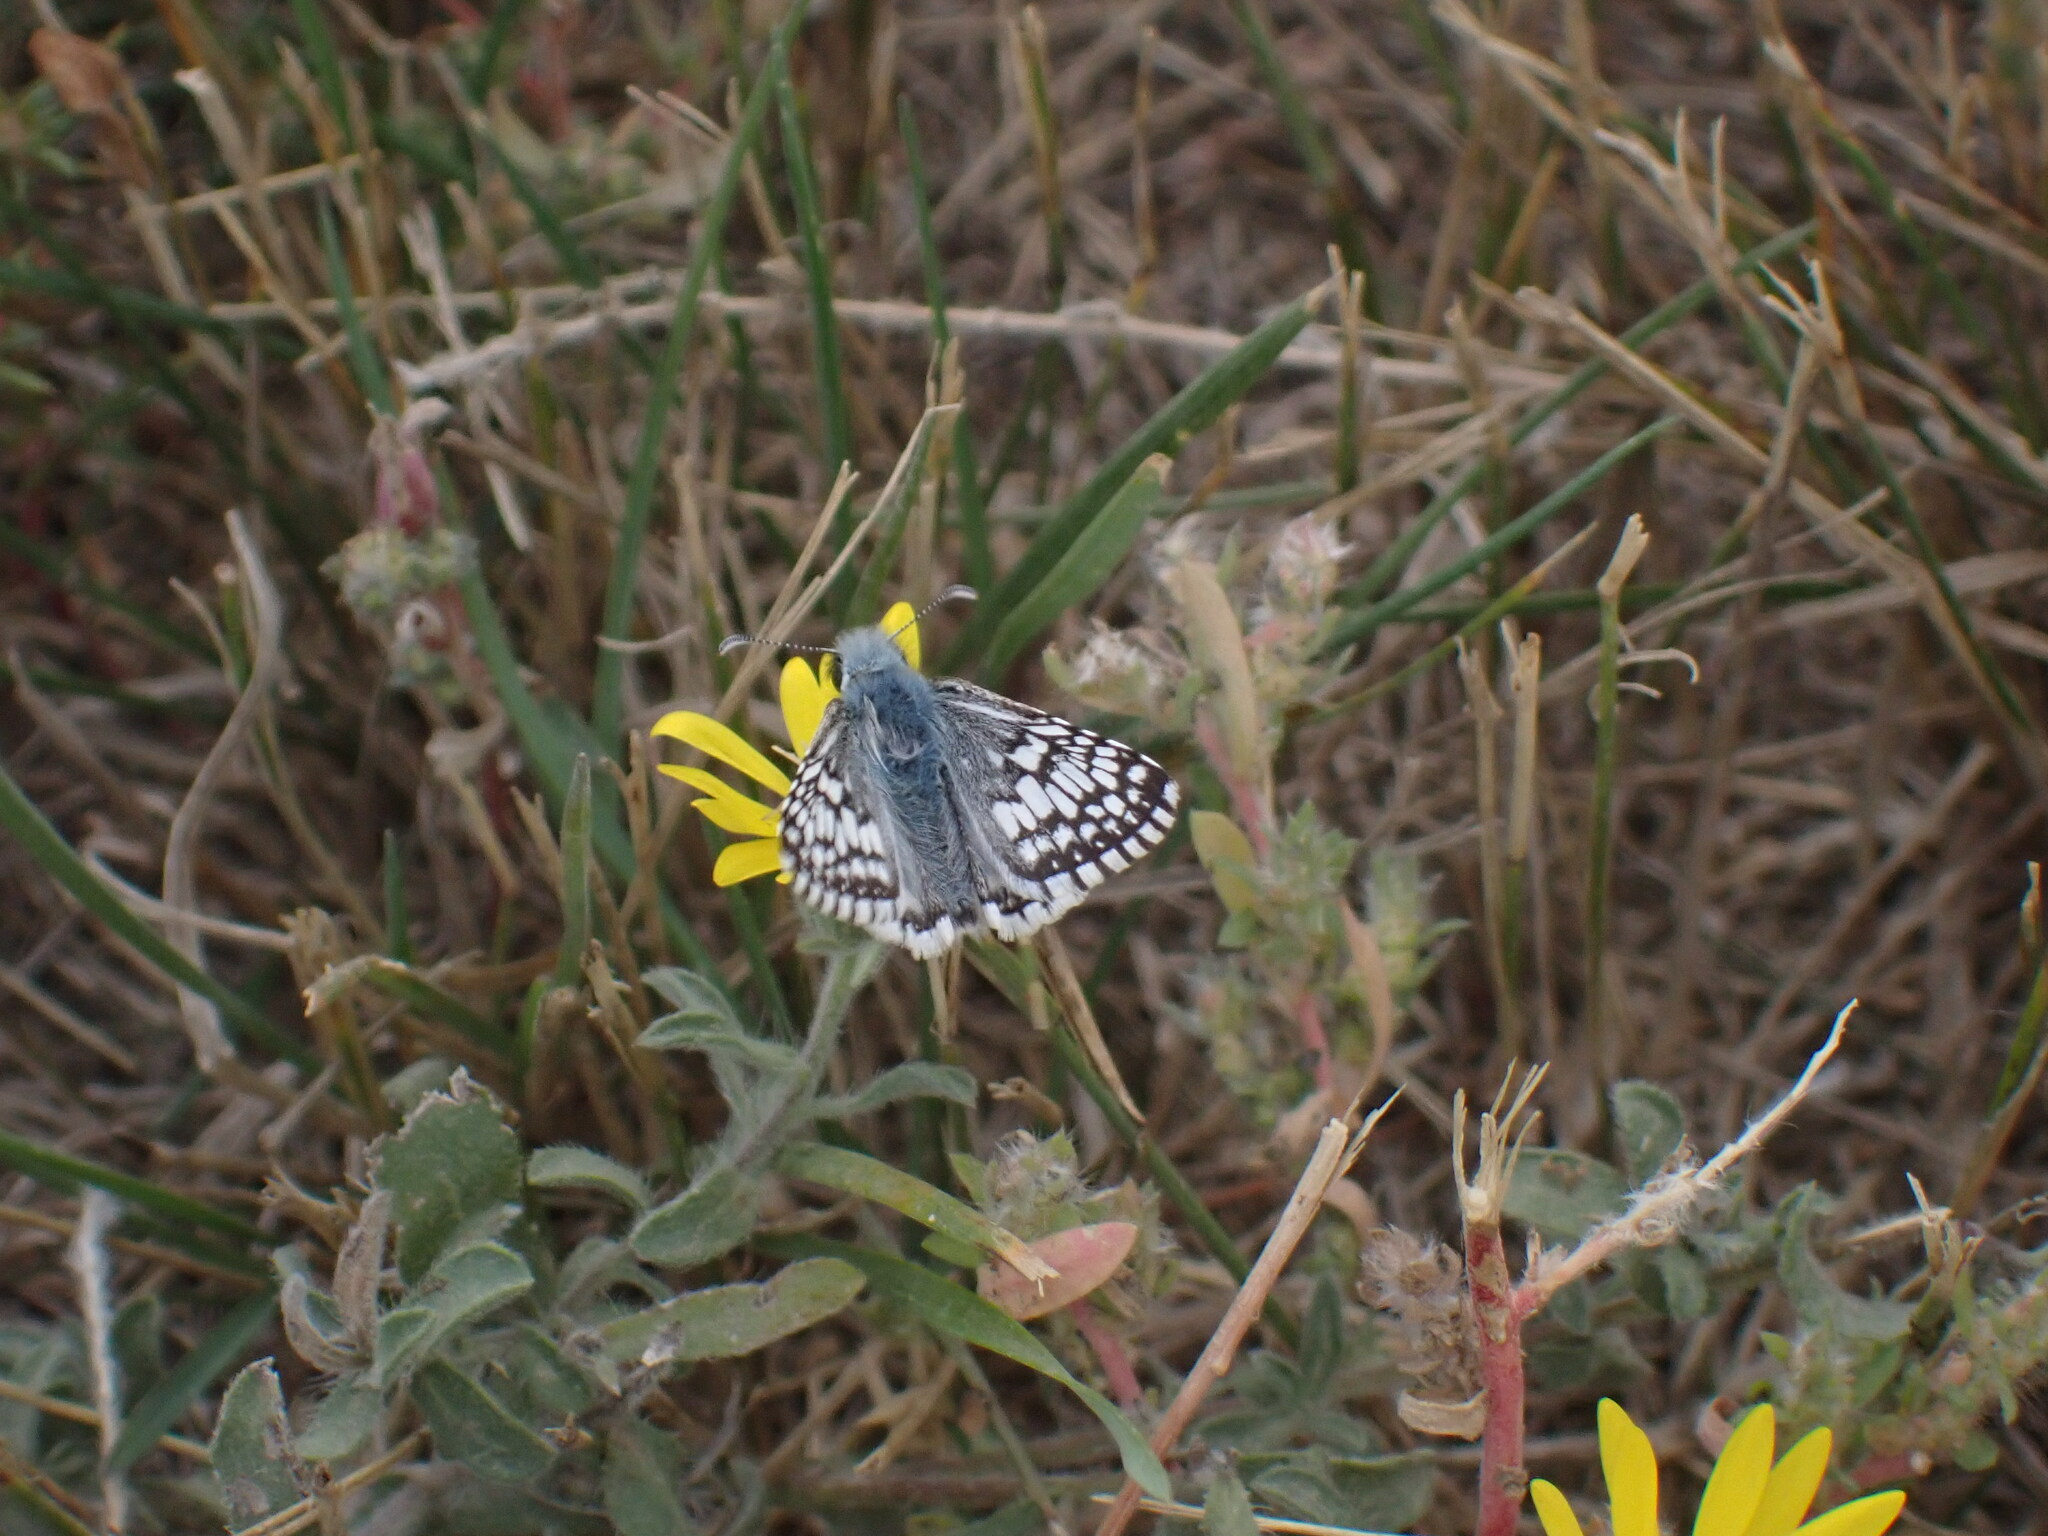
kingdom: Animalia
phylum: Arthropoda
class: Insecta
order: Lepidoptera
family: Hesperiidae
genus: Burnsius
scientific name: Burnsius communis
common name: Common checkered-skipper
